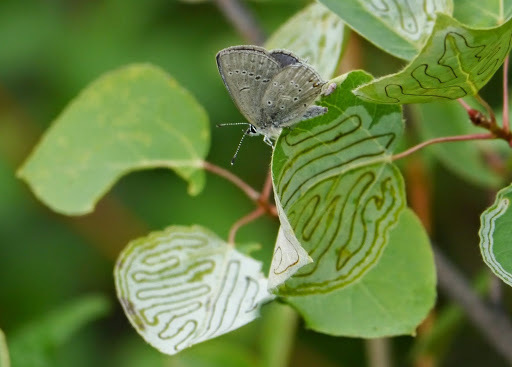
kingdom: Animalia
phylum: Arthropoda
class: Insecta
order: Lepidoptera
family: Lycaenidae
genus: Elkalyce
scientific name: Elkalyce amyntula
